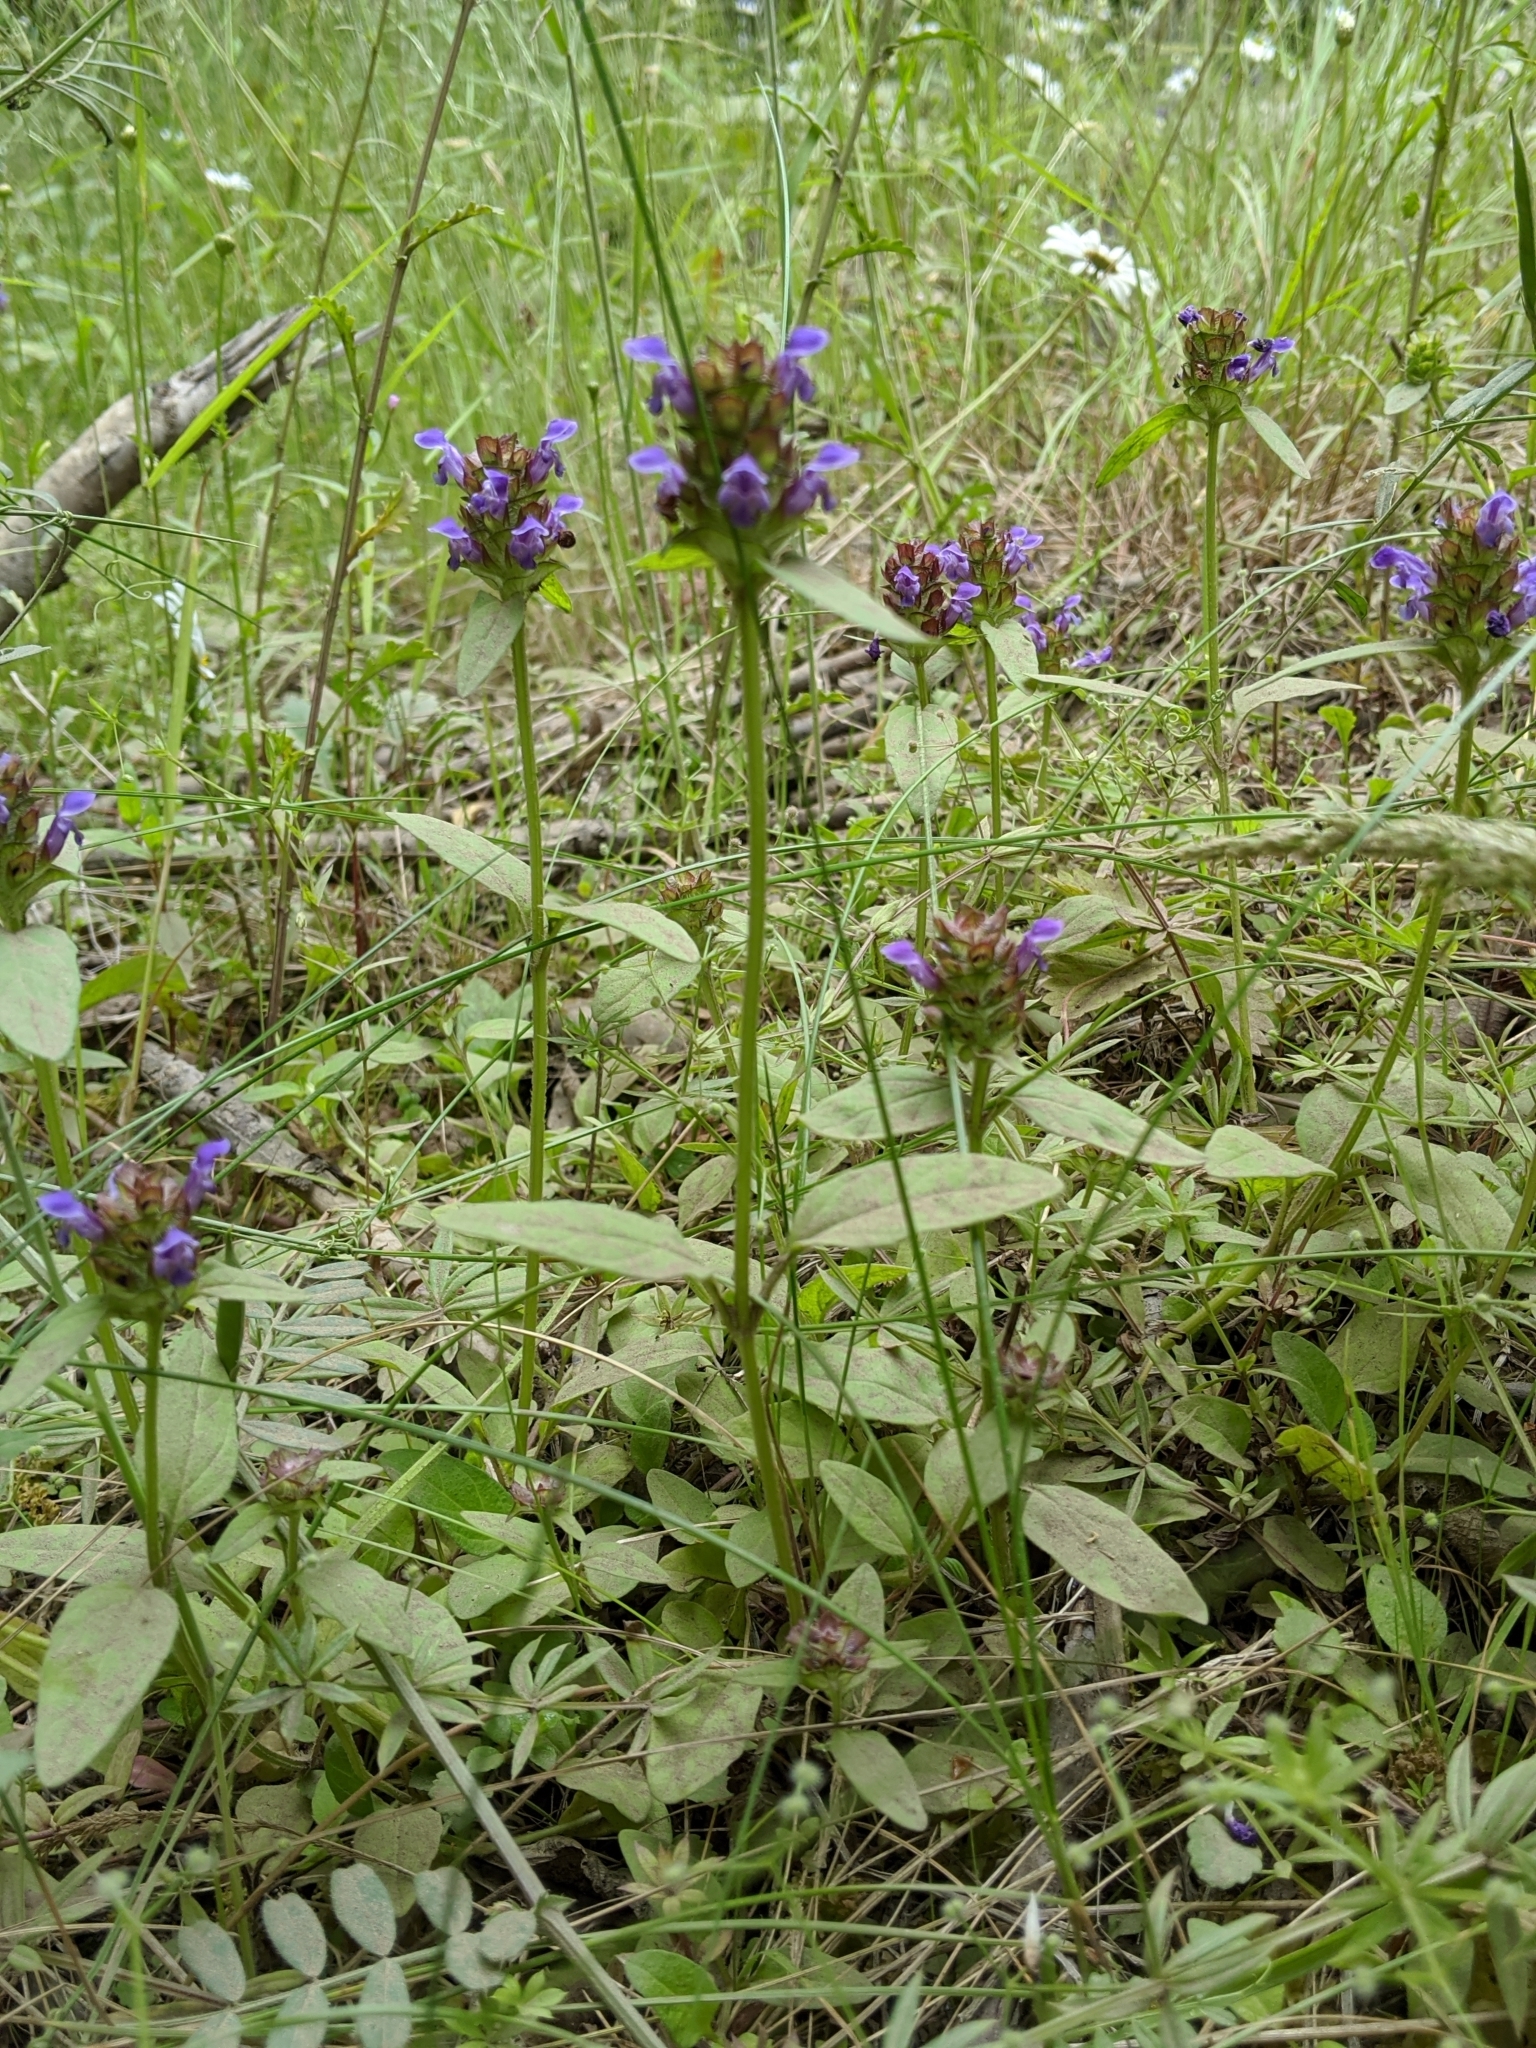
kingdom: Plantae
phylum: Tracheophyta
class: Magnoliopsida
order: Lamiales
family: Lamiaceae
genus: Prunella
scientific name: Prunella vulgaris
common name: Heal-all
